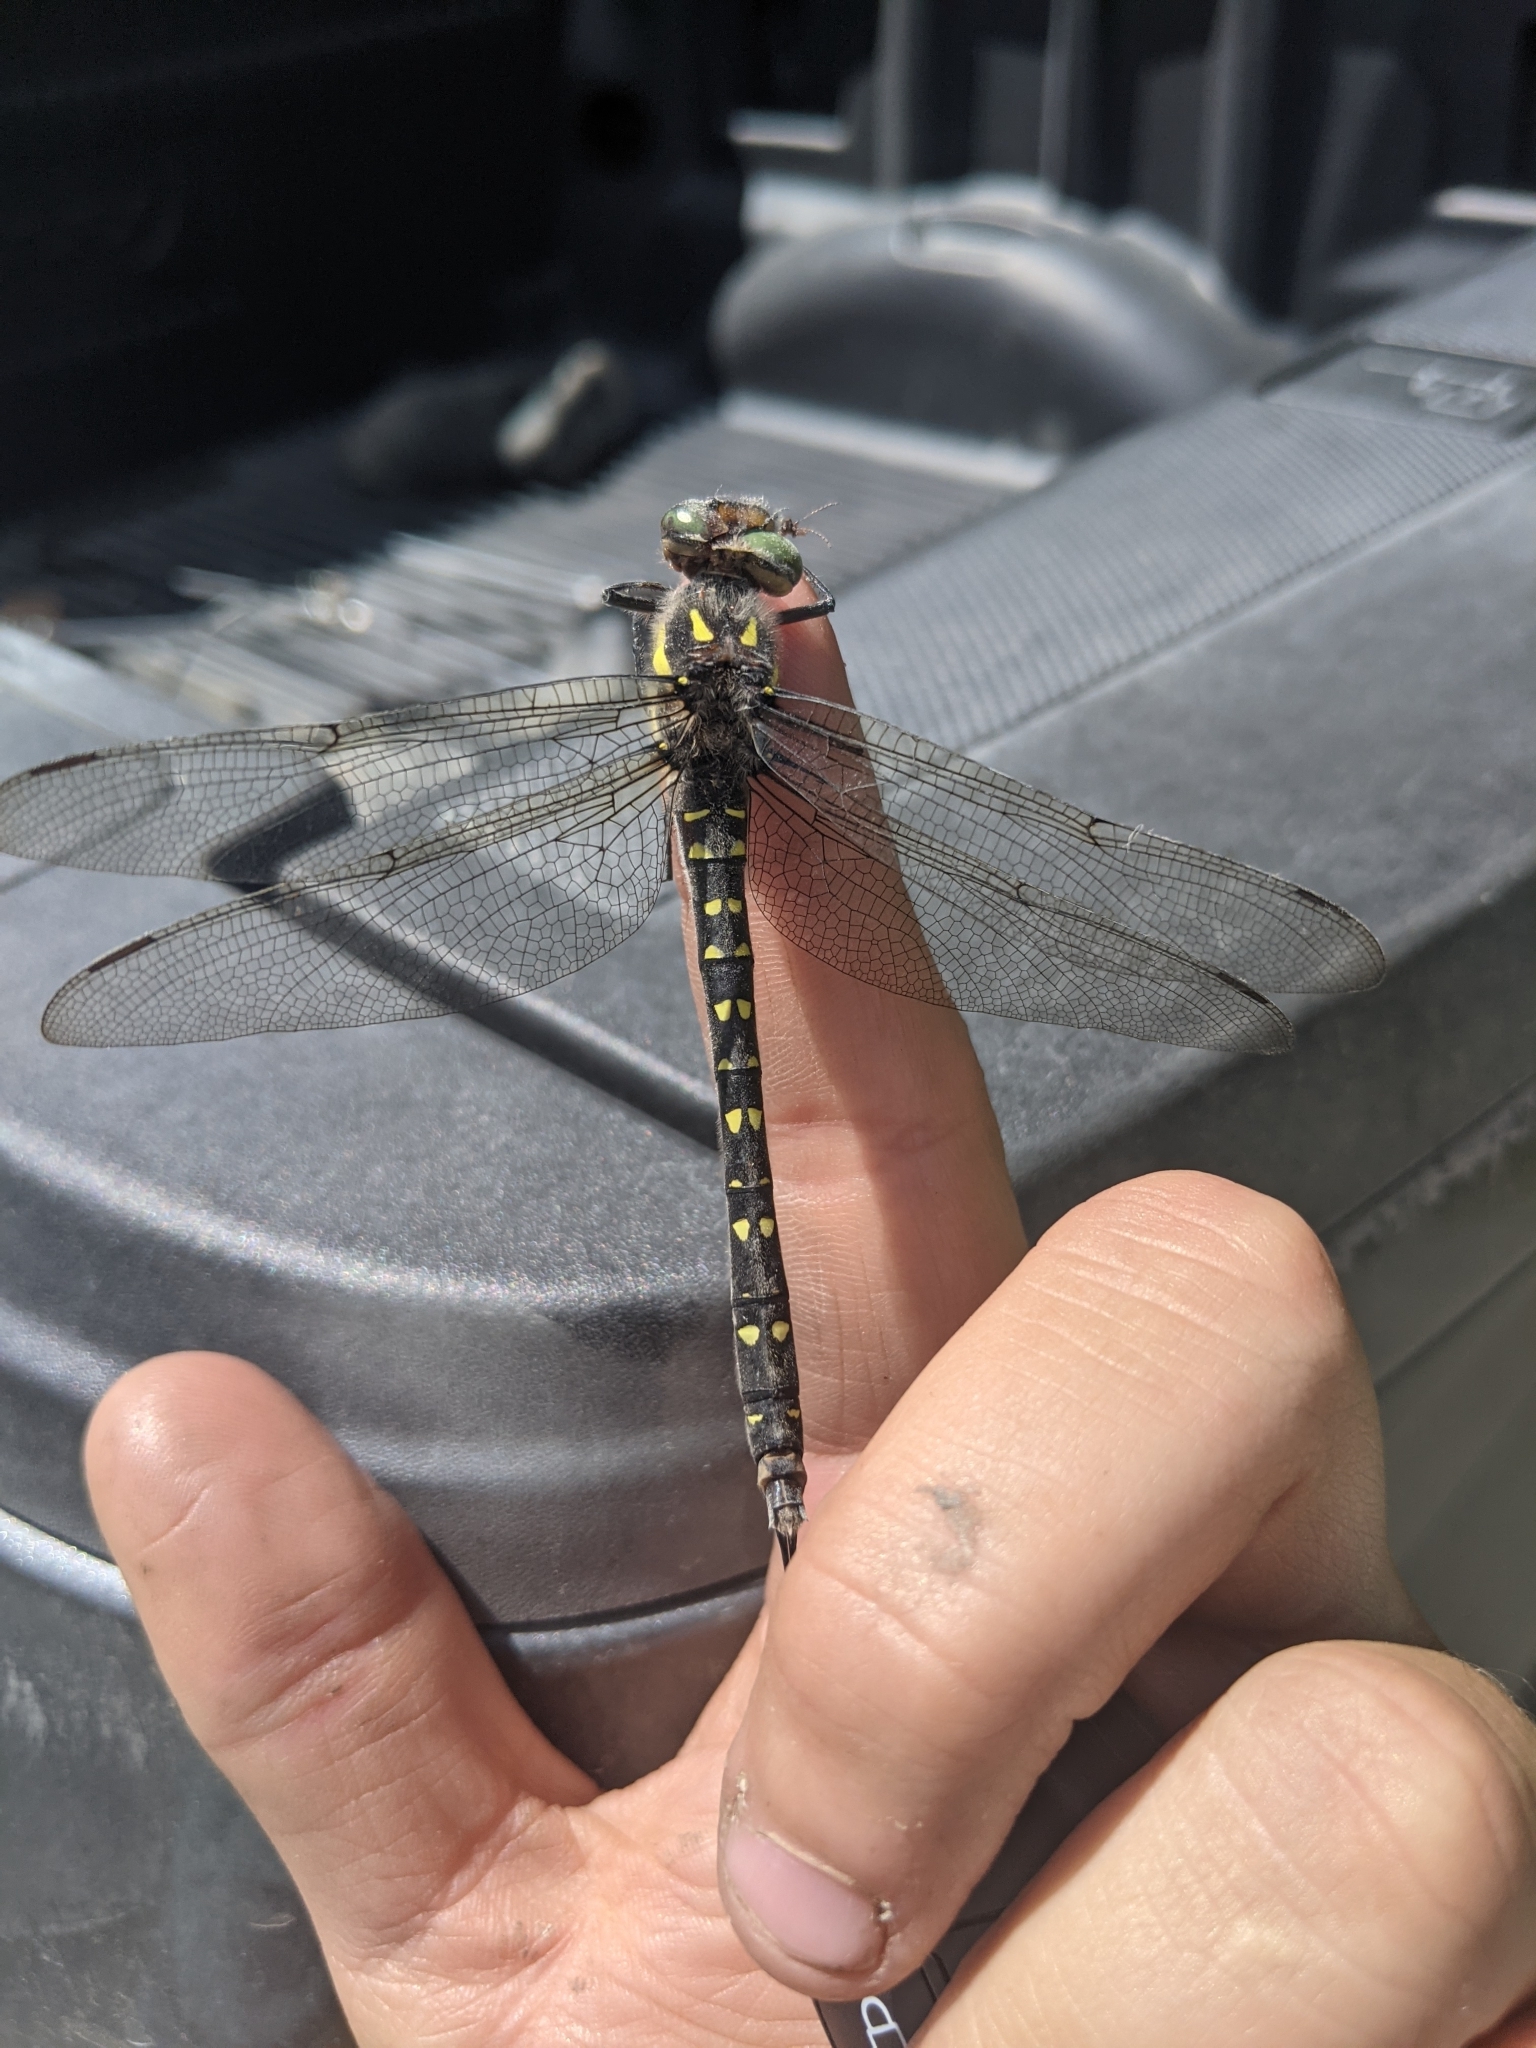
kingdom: Animalia
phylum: Arthropoda
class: Insecta
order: Odonata
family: Cordulegastridae
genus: Cordulegaster
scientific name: Cordulegaster maculata
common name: Twin-spotted spiketail
